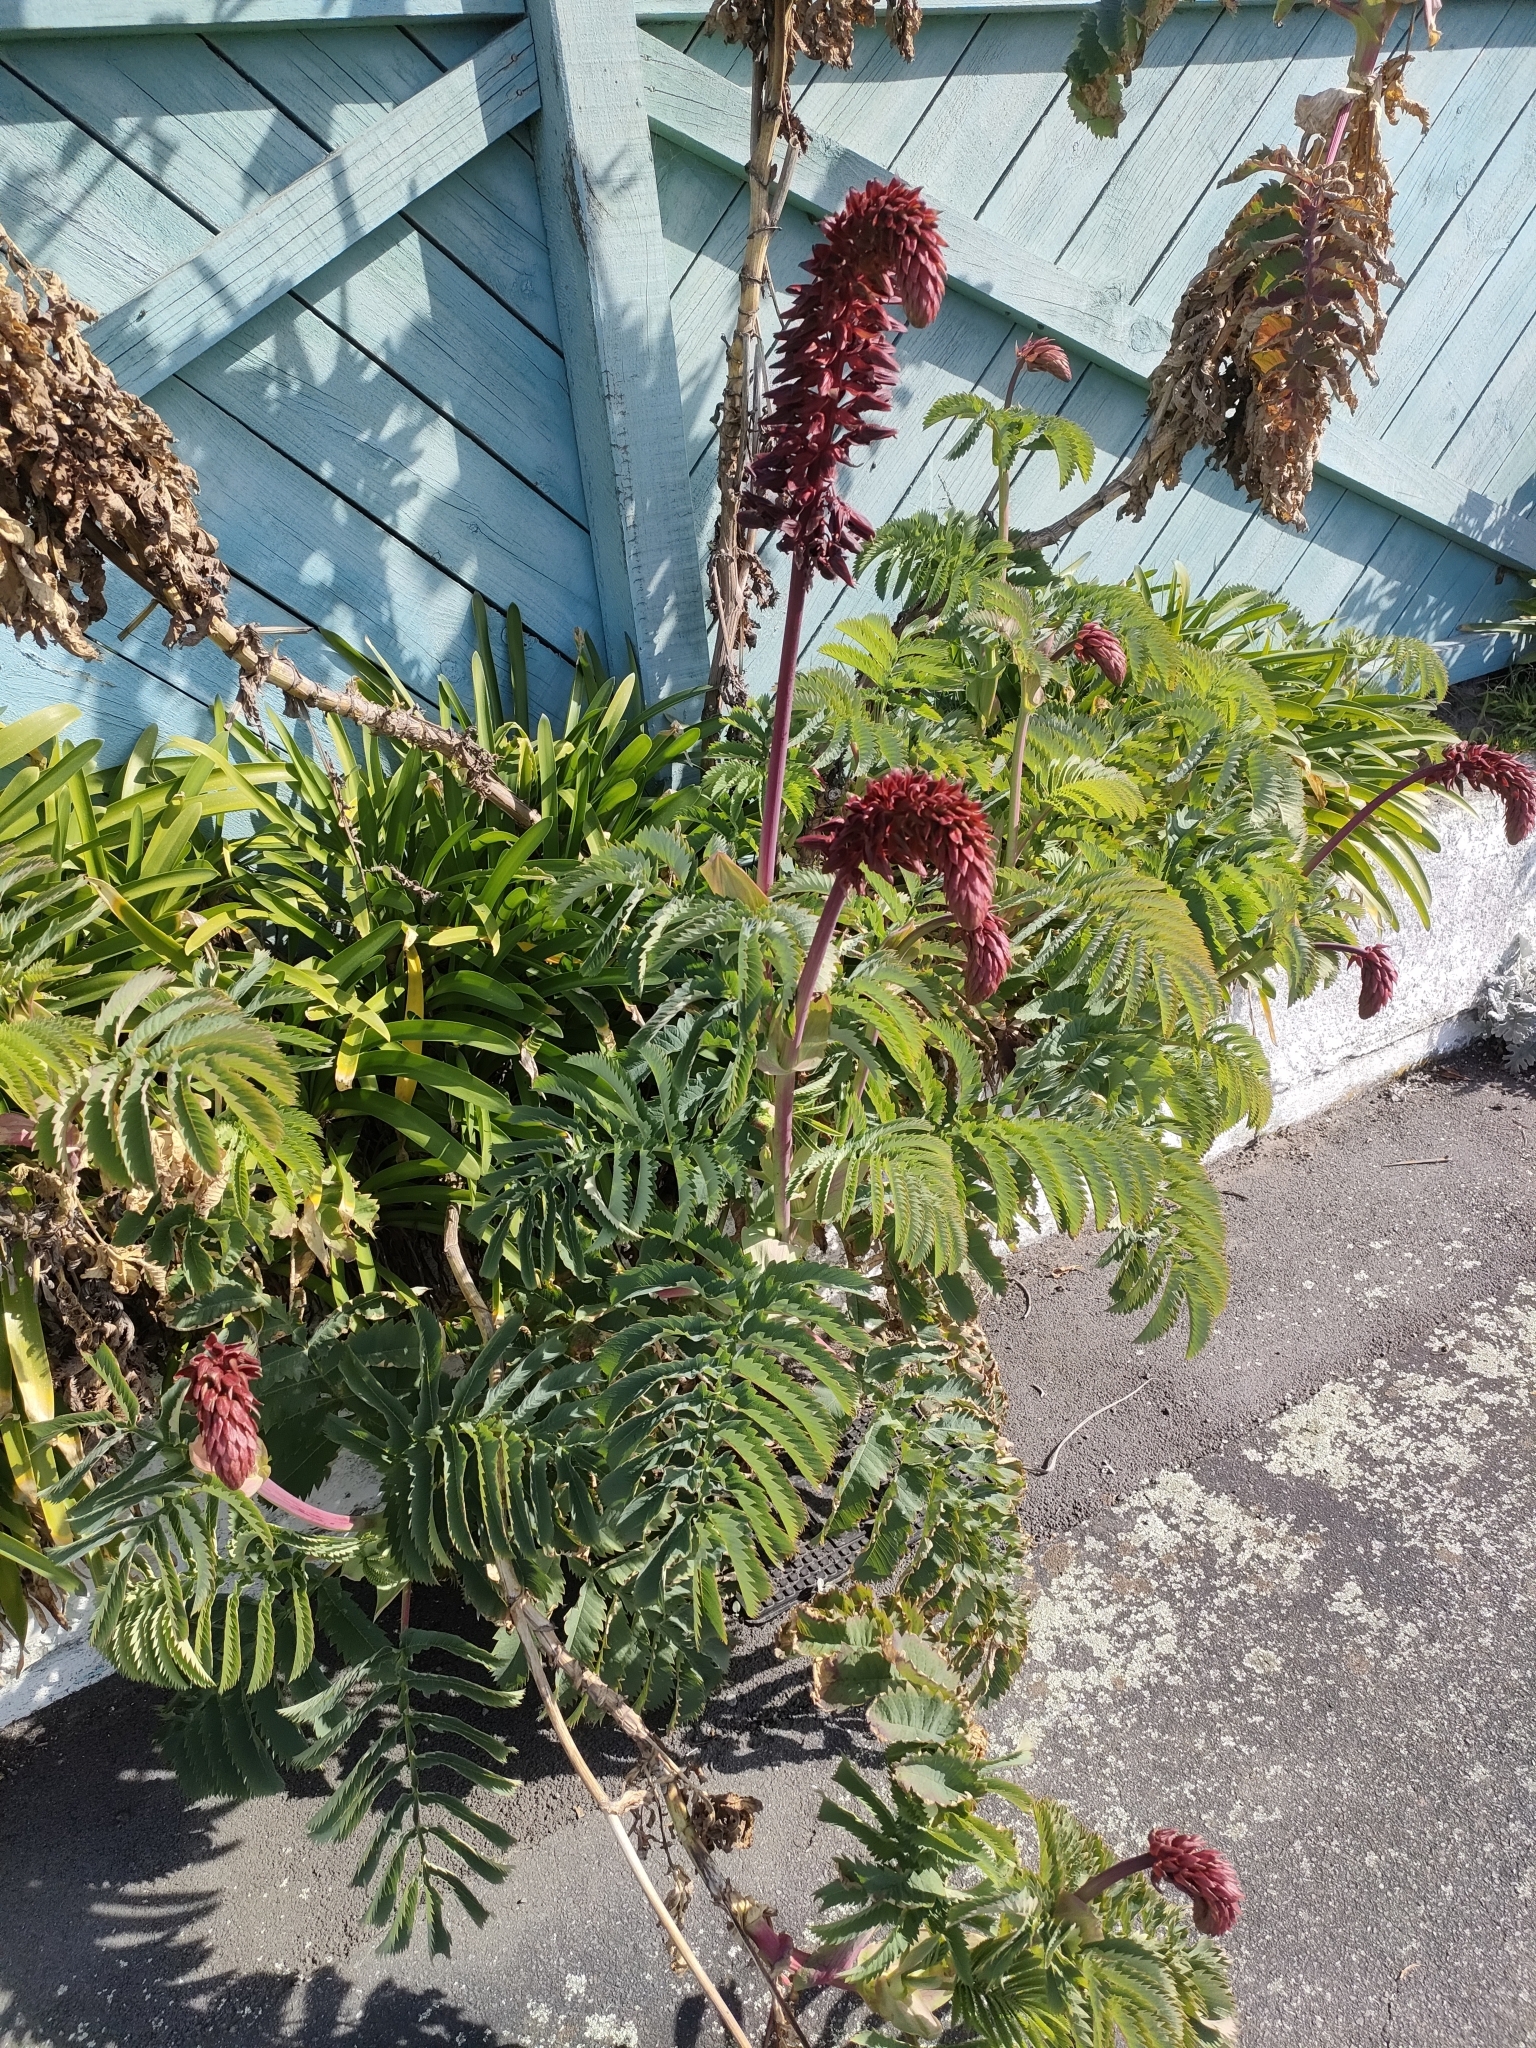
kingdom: Plantae
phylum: Tracheophyta
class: Magnoliopsida
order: Geraniales
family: Melianthaceae
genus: Melianthus
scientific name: Melianthus major
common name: Honey-flower
